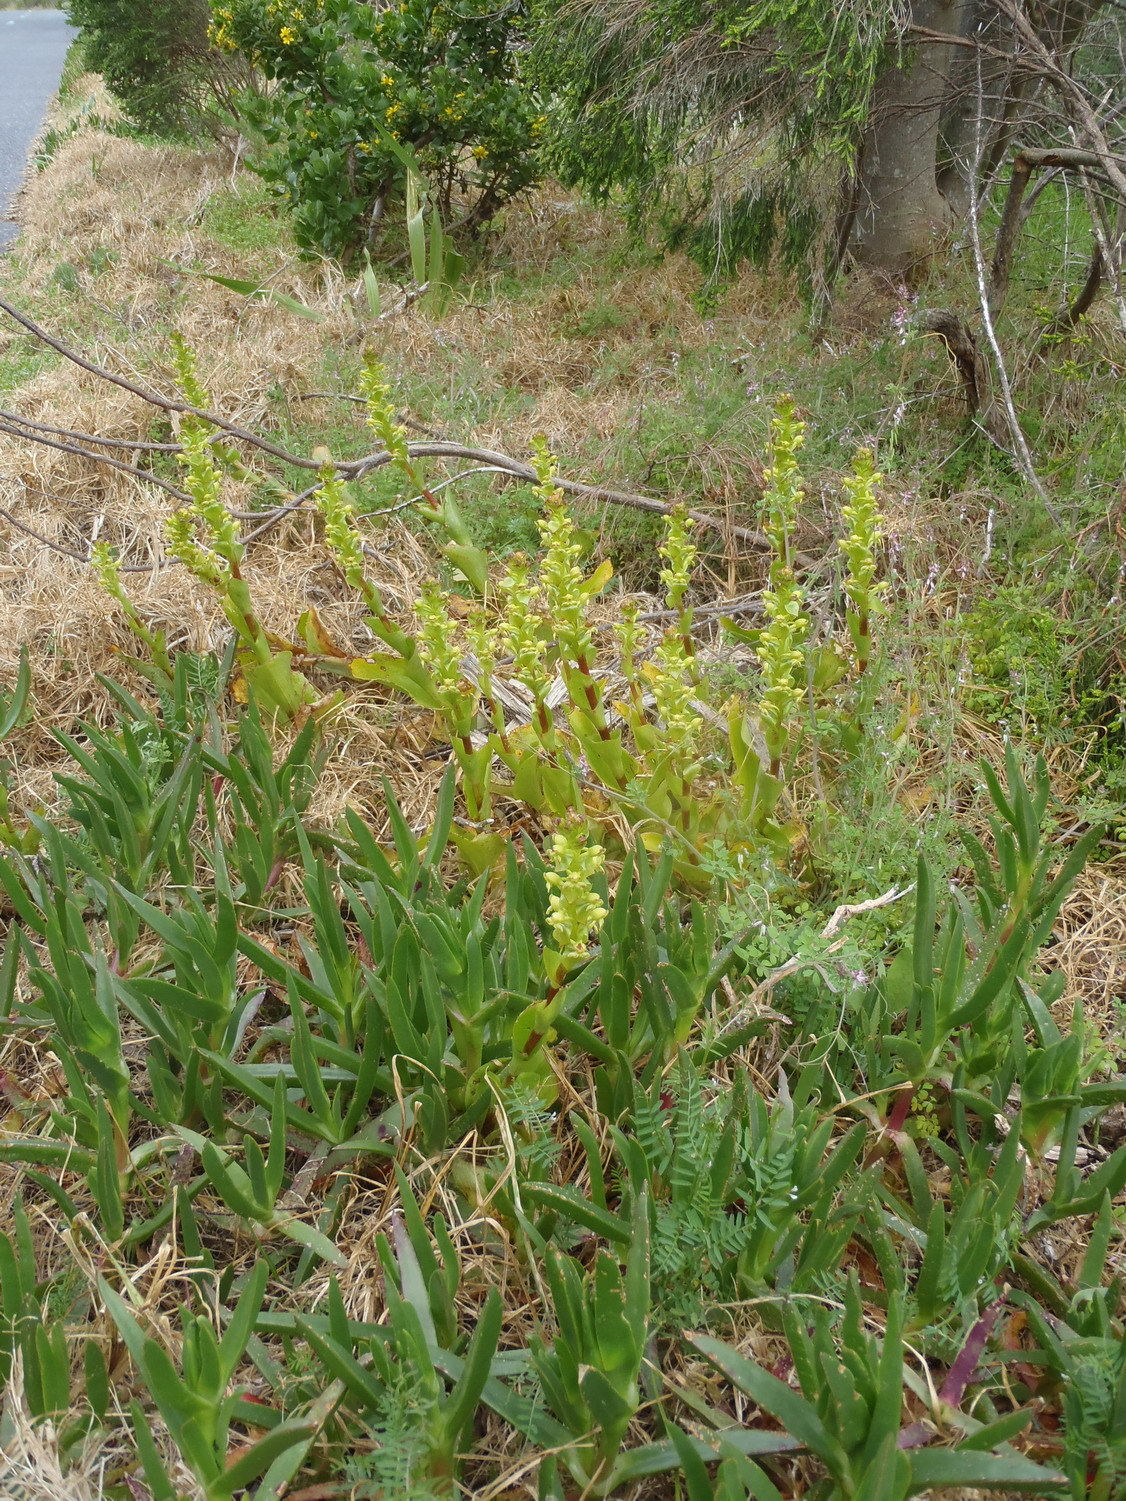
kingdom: Plantae
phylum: Tracheophyta
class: Liliopsida
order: Asparagales
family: Orchidaceae
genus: Satyrium
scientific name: Satyrium odorum
